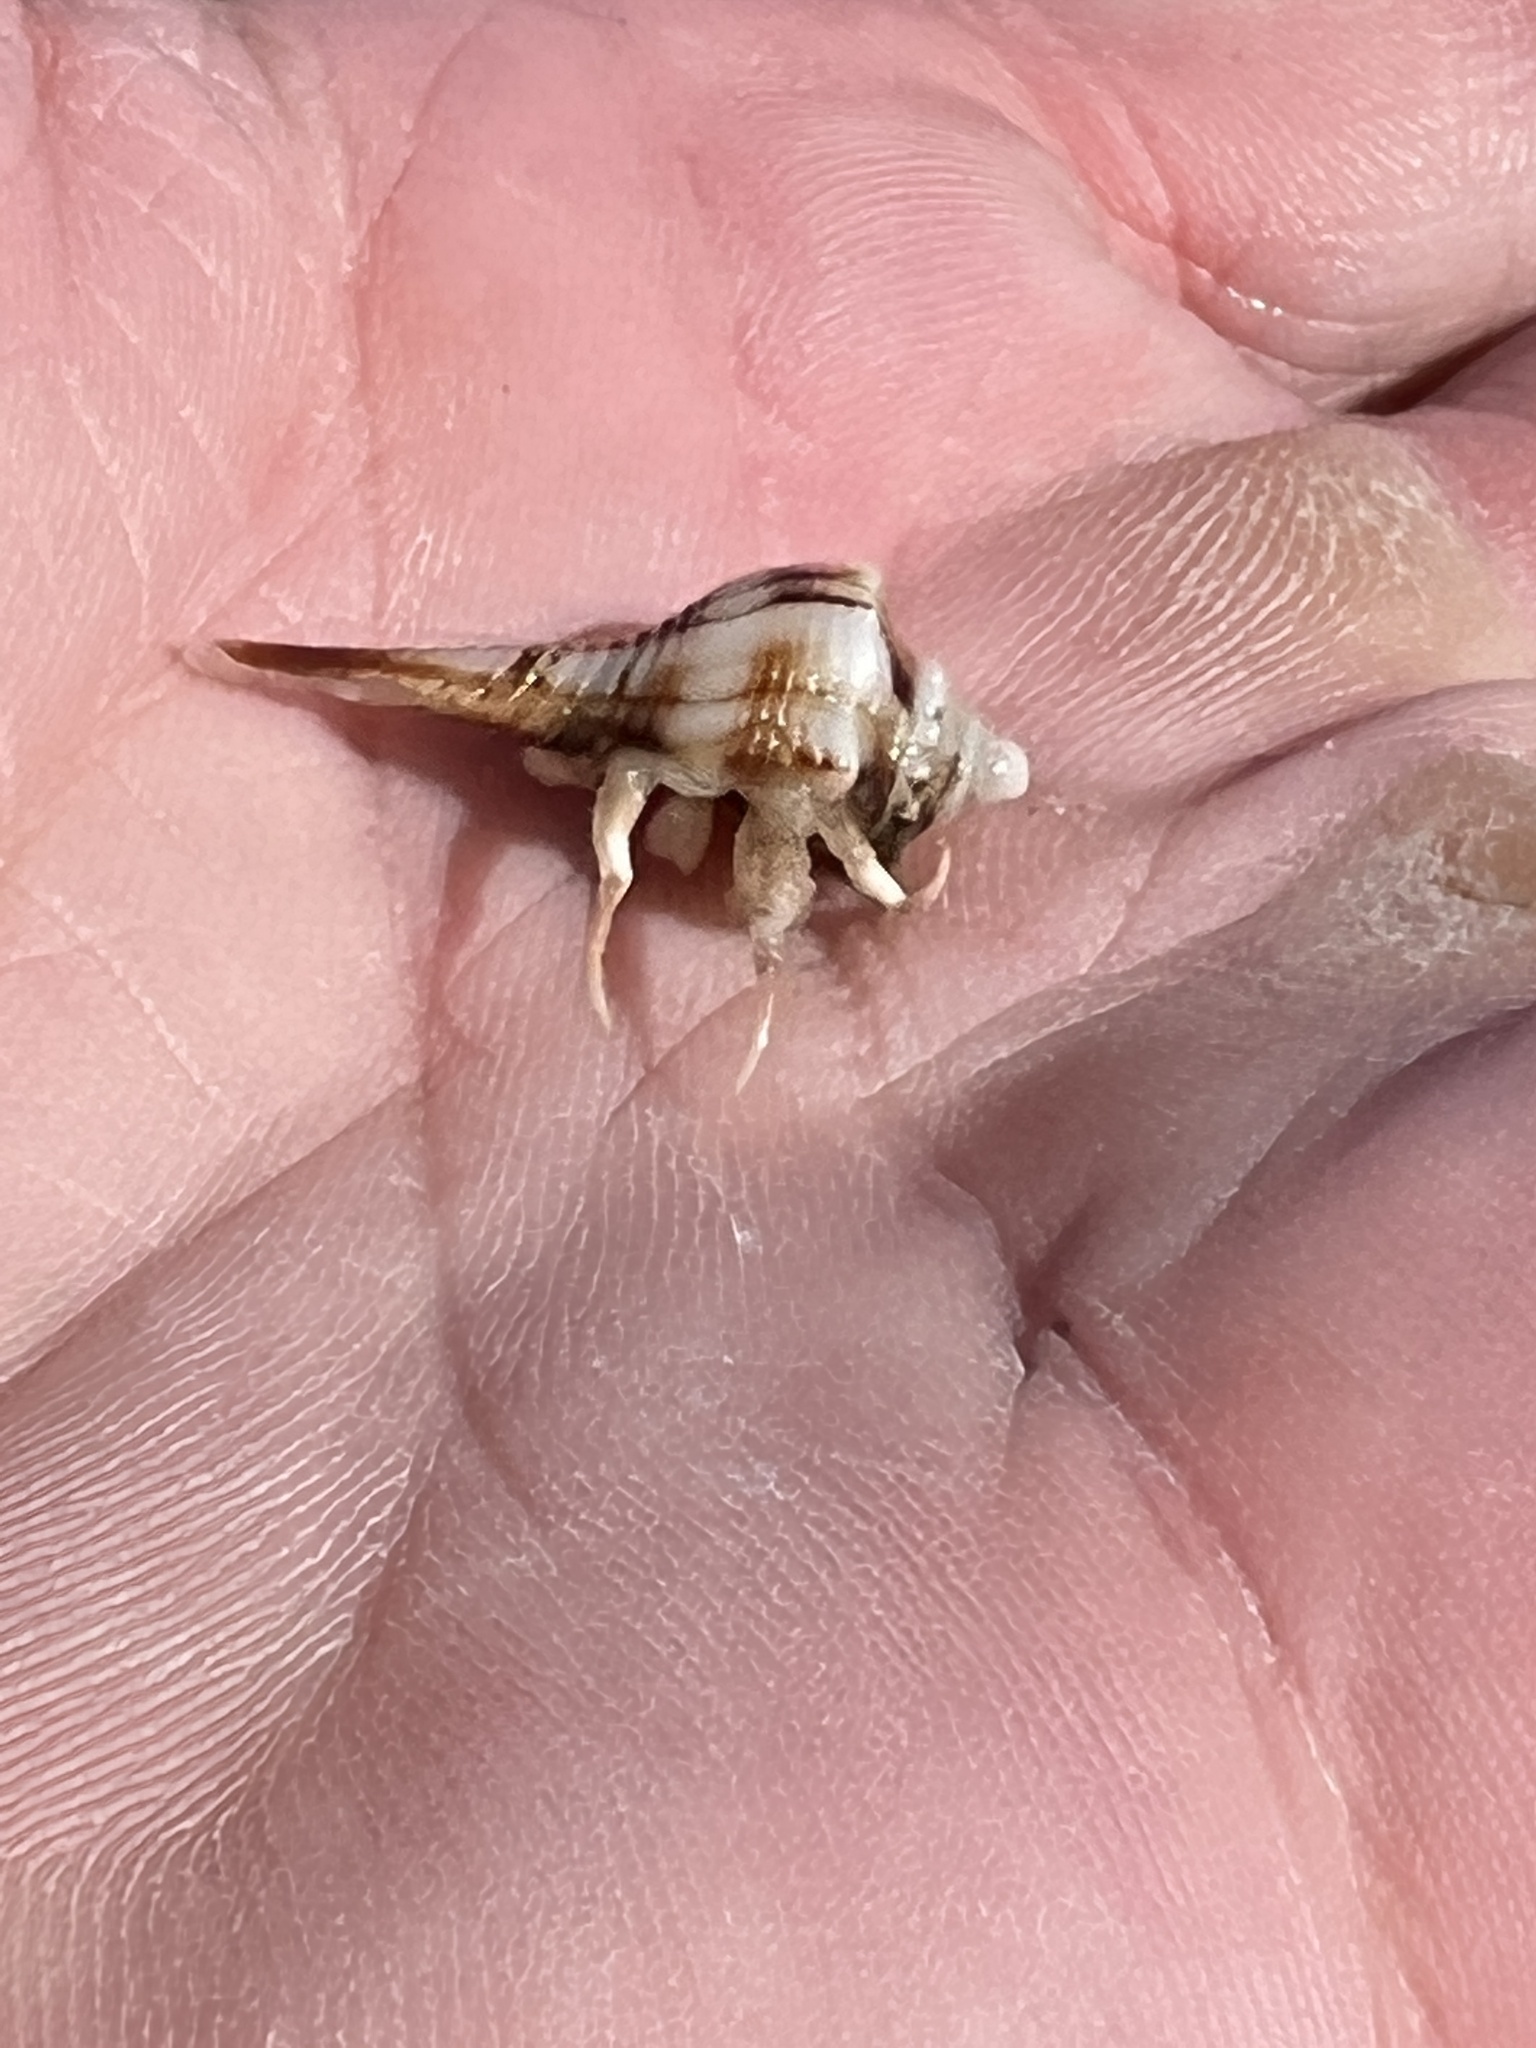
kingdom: Animalia
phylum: Arthropoda
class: Malacostraca
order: Decapoda
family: Diogenidae
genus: Isocheles
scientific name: Isocheles wurdemanni
